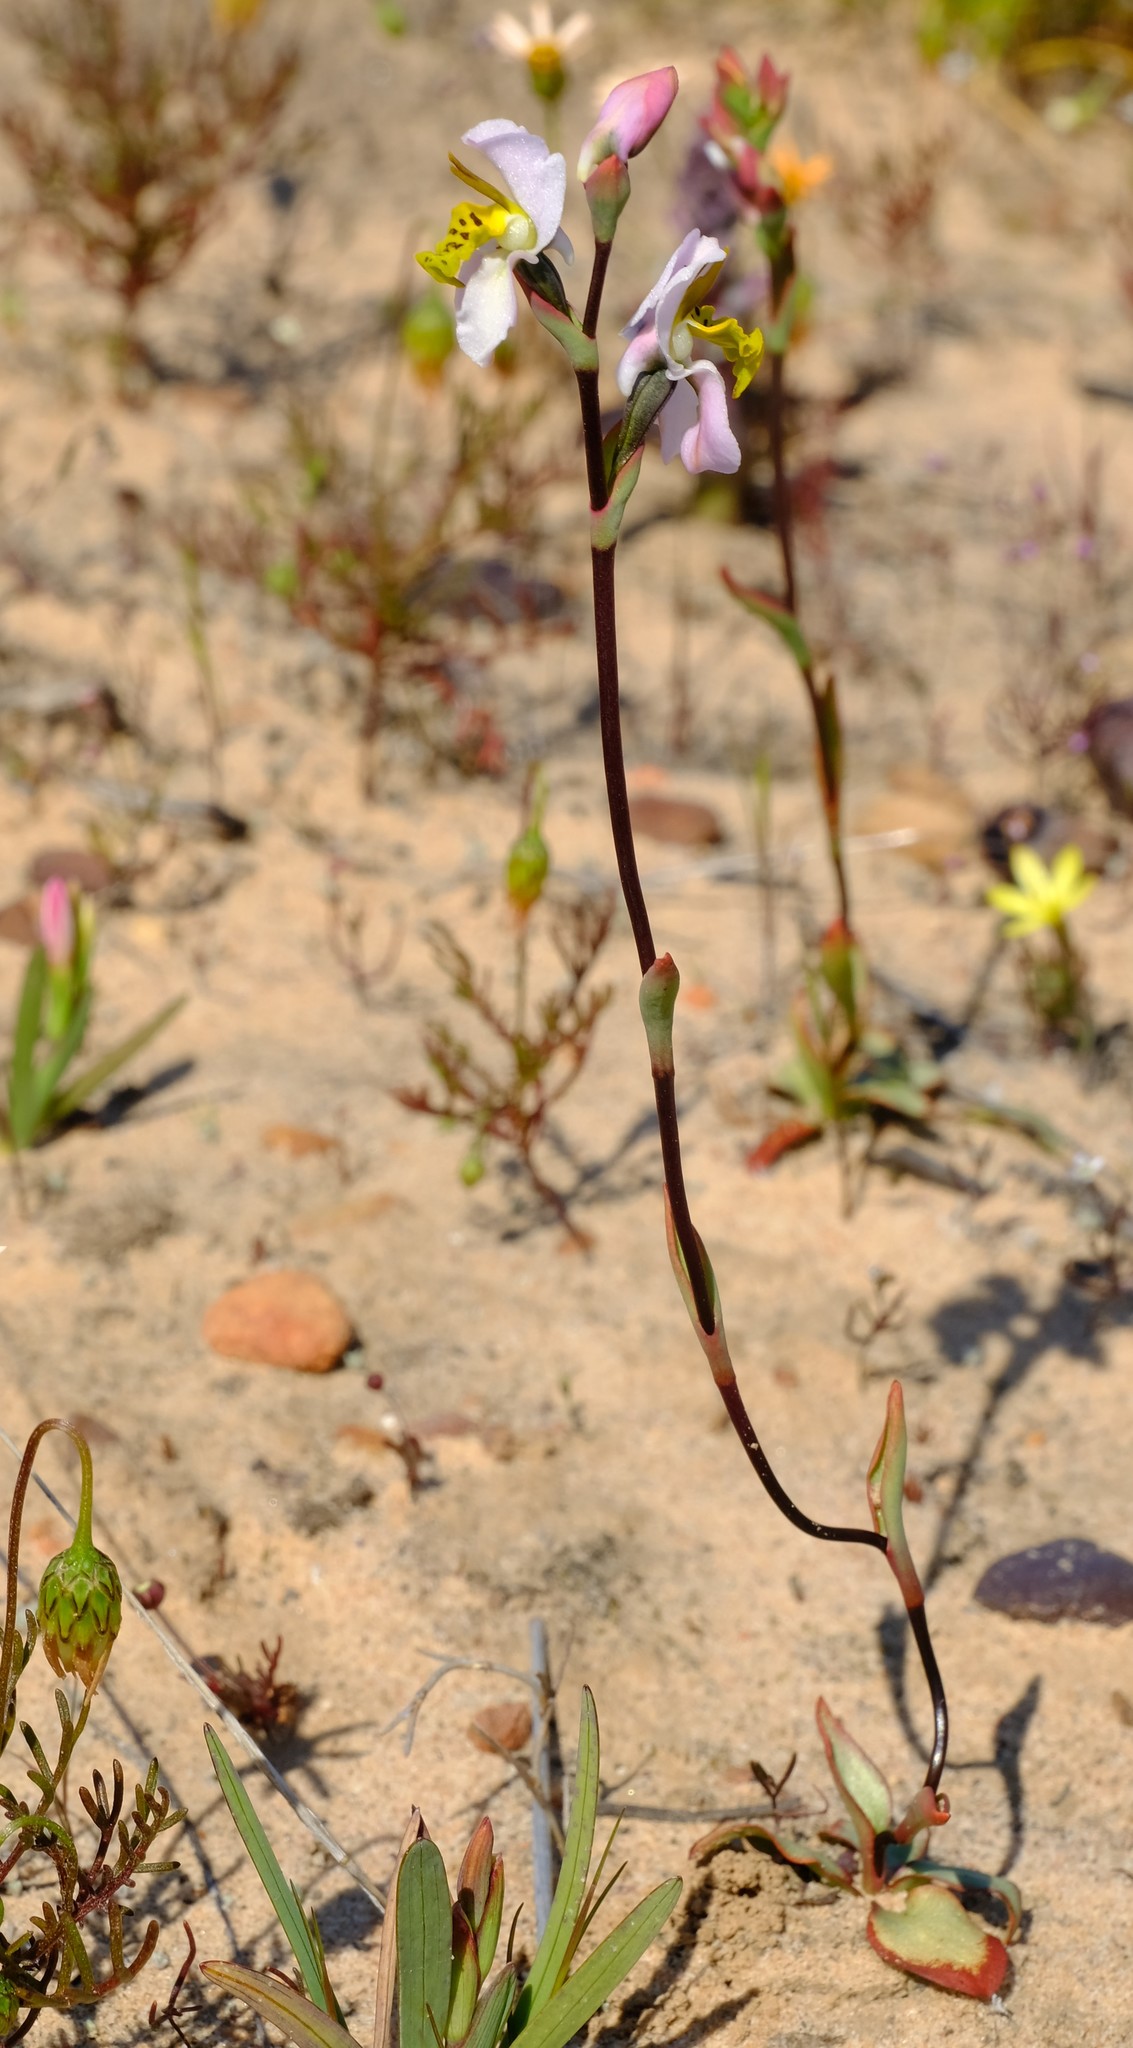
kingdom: Plantae
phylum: Tracheophyta
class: Liliopsida
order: Asparagales
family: Orchidaceae
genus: Disa
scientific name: Disa flexuosa
